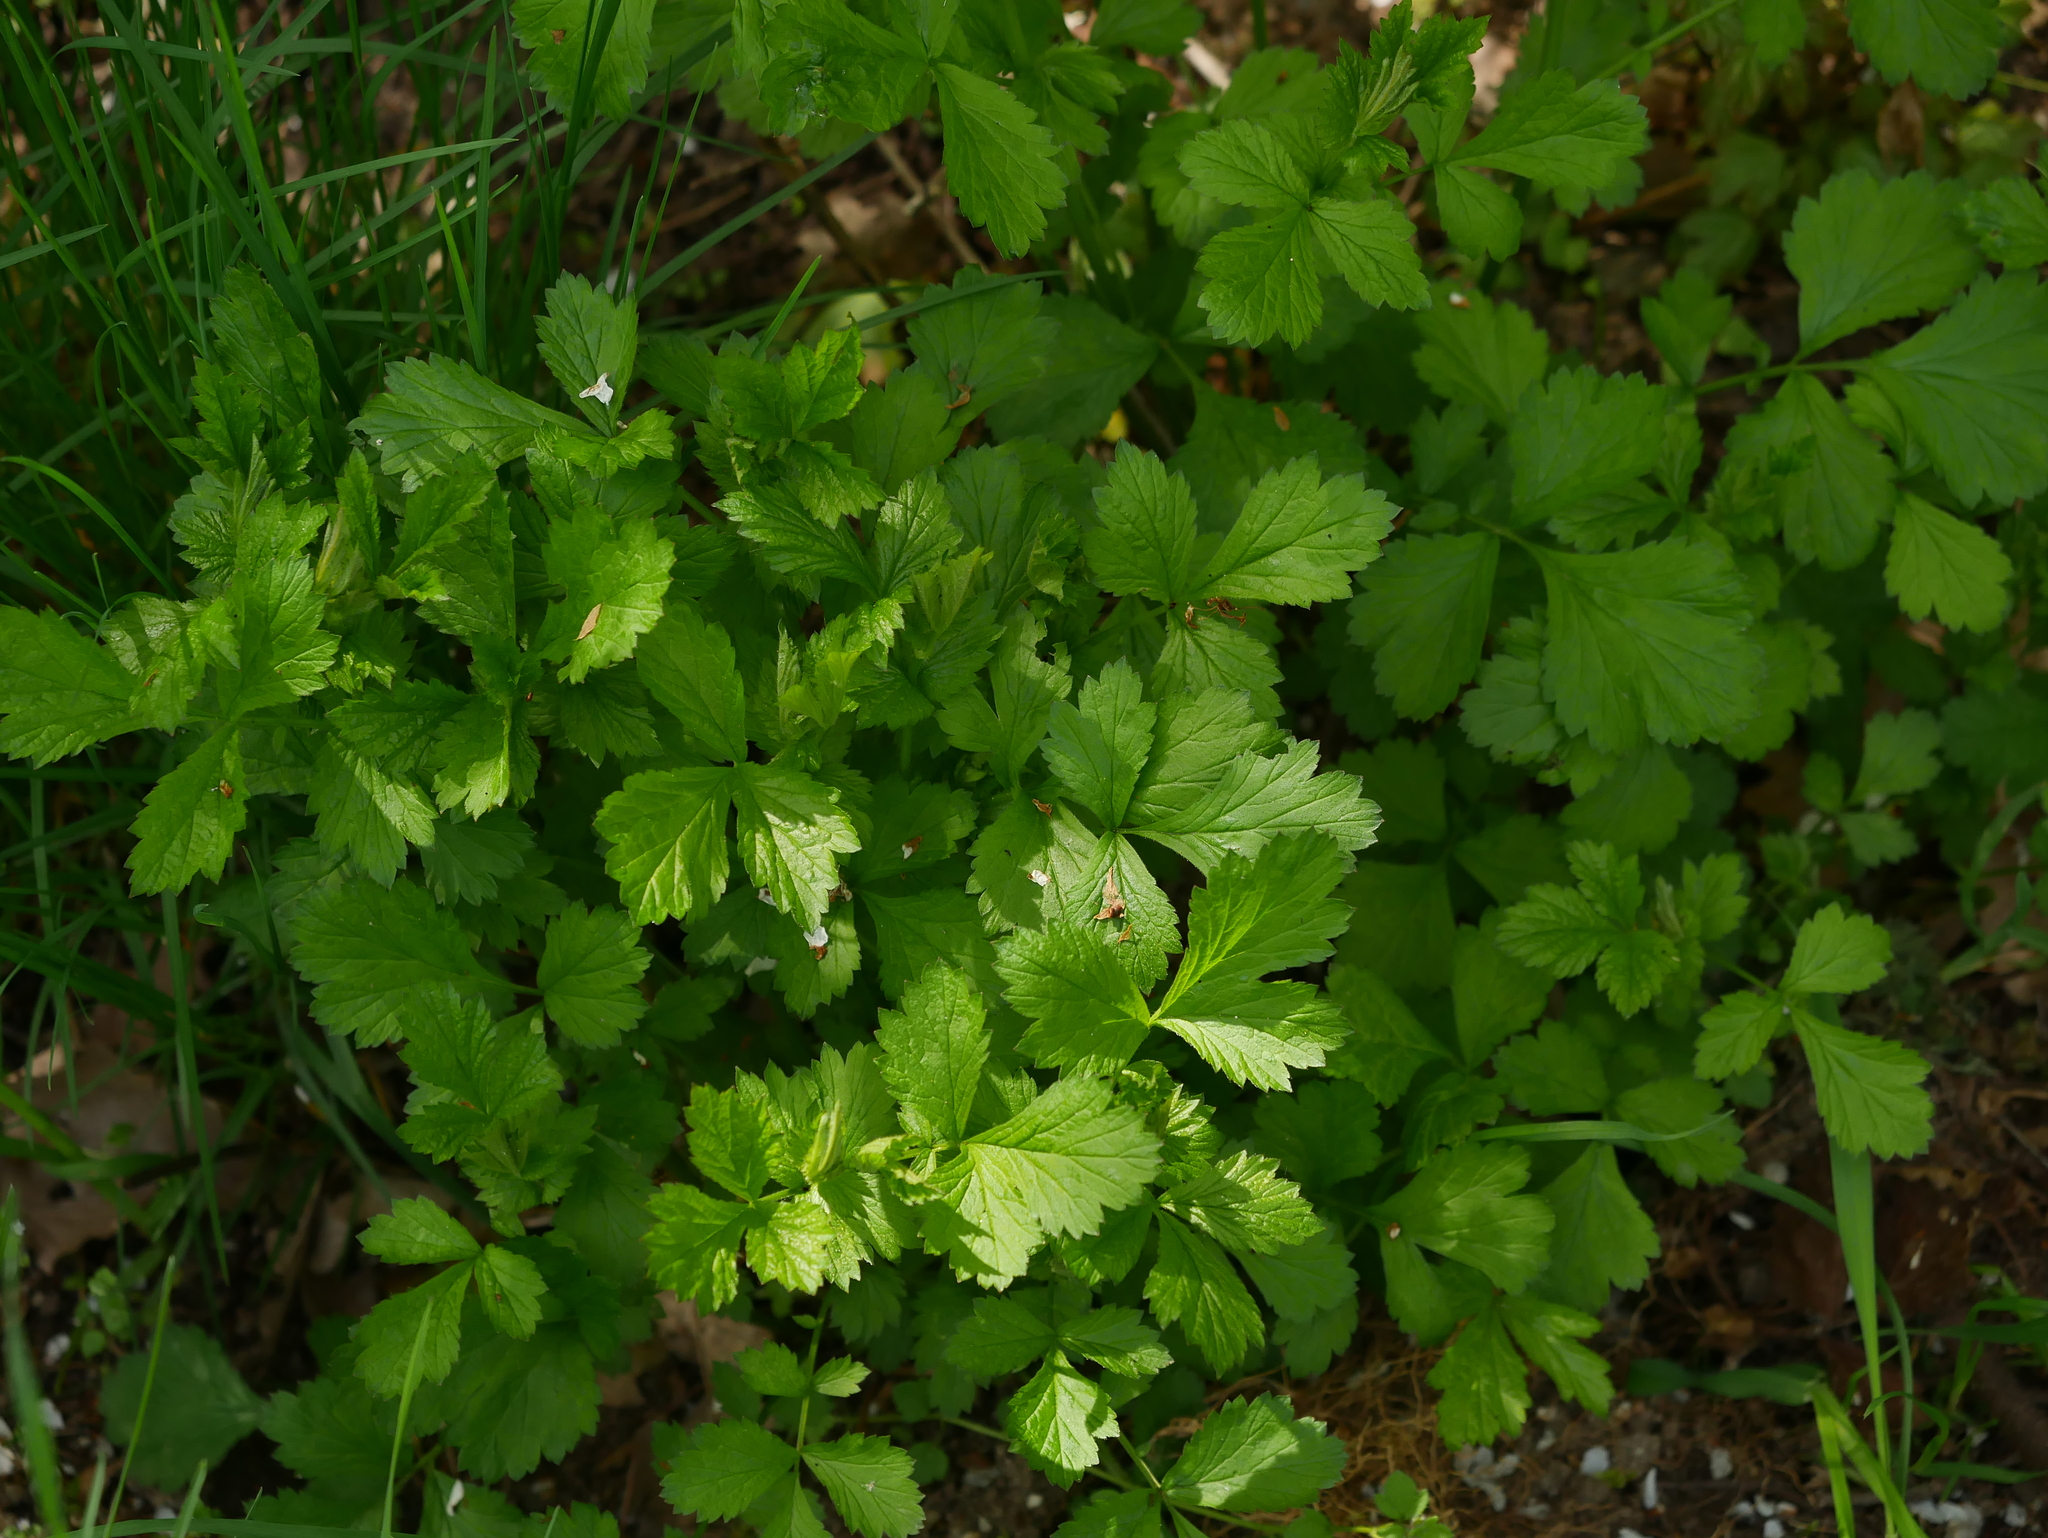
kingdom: Plantae
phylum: Tracheophyta
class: Magnoliopsida
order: Rosales
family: Rosaceae
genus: Geum
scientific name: Geum urbanum
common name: Wood avens
